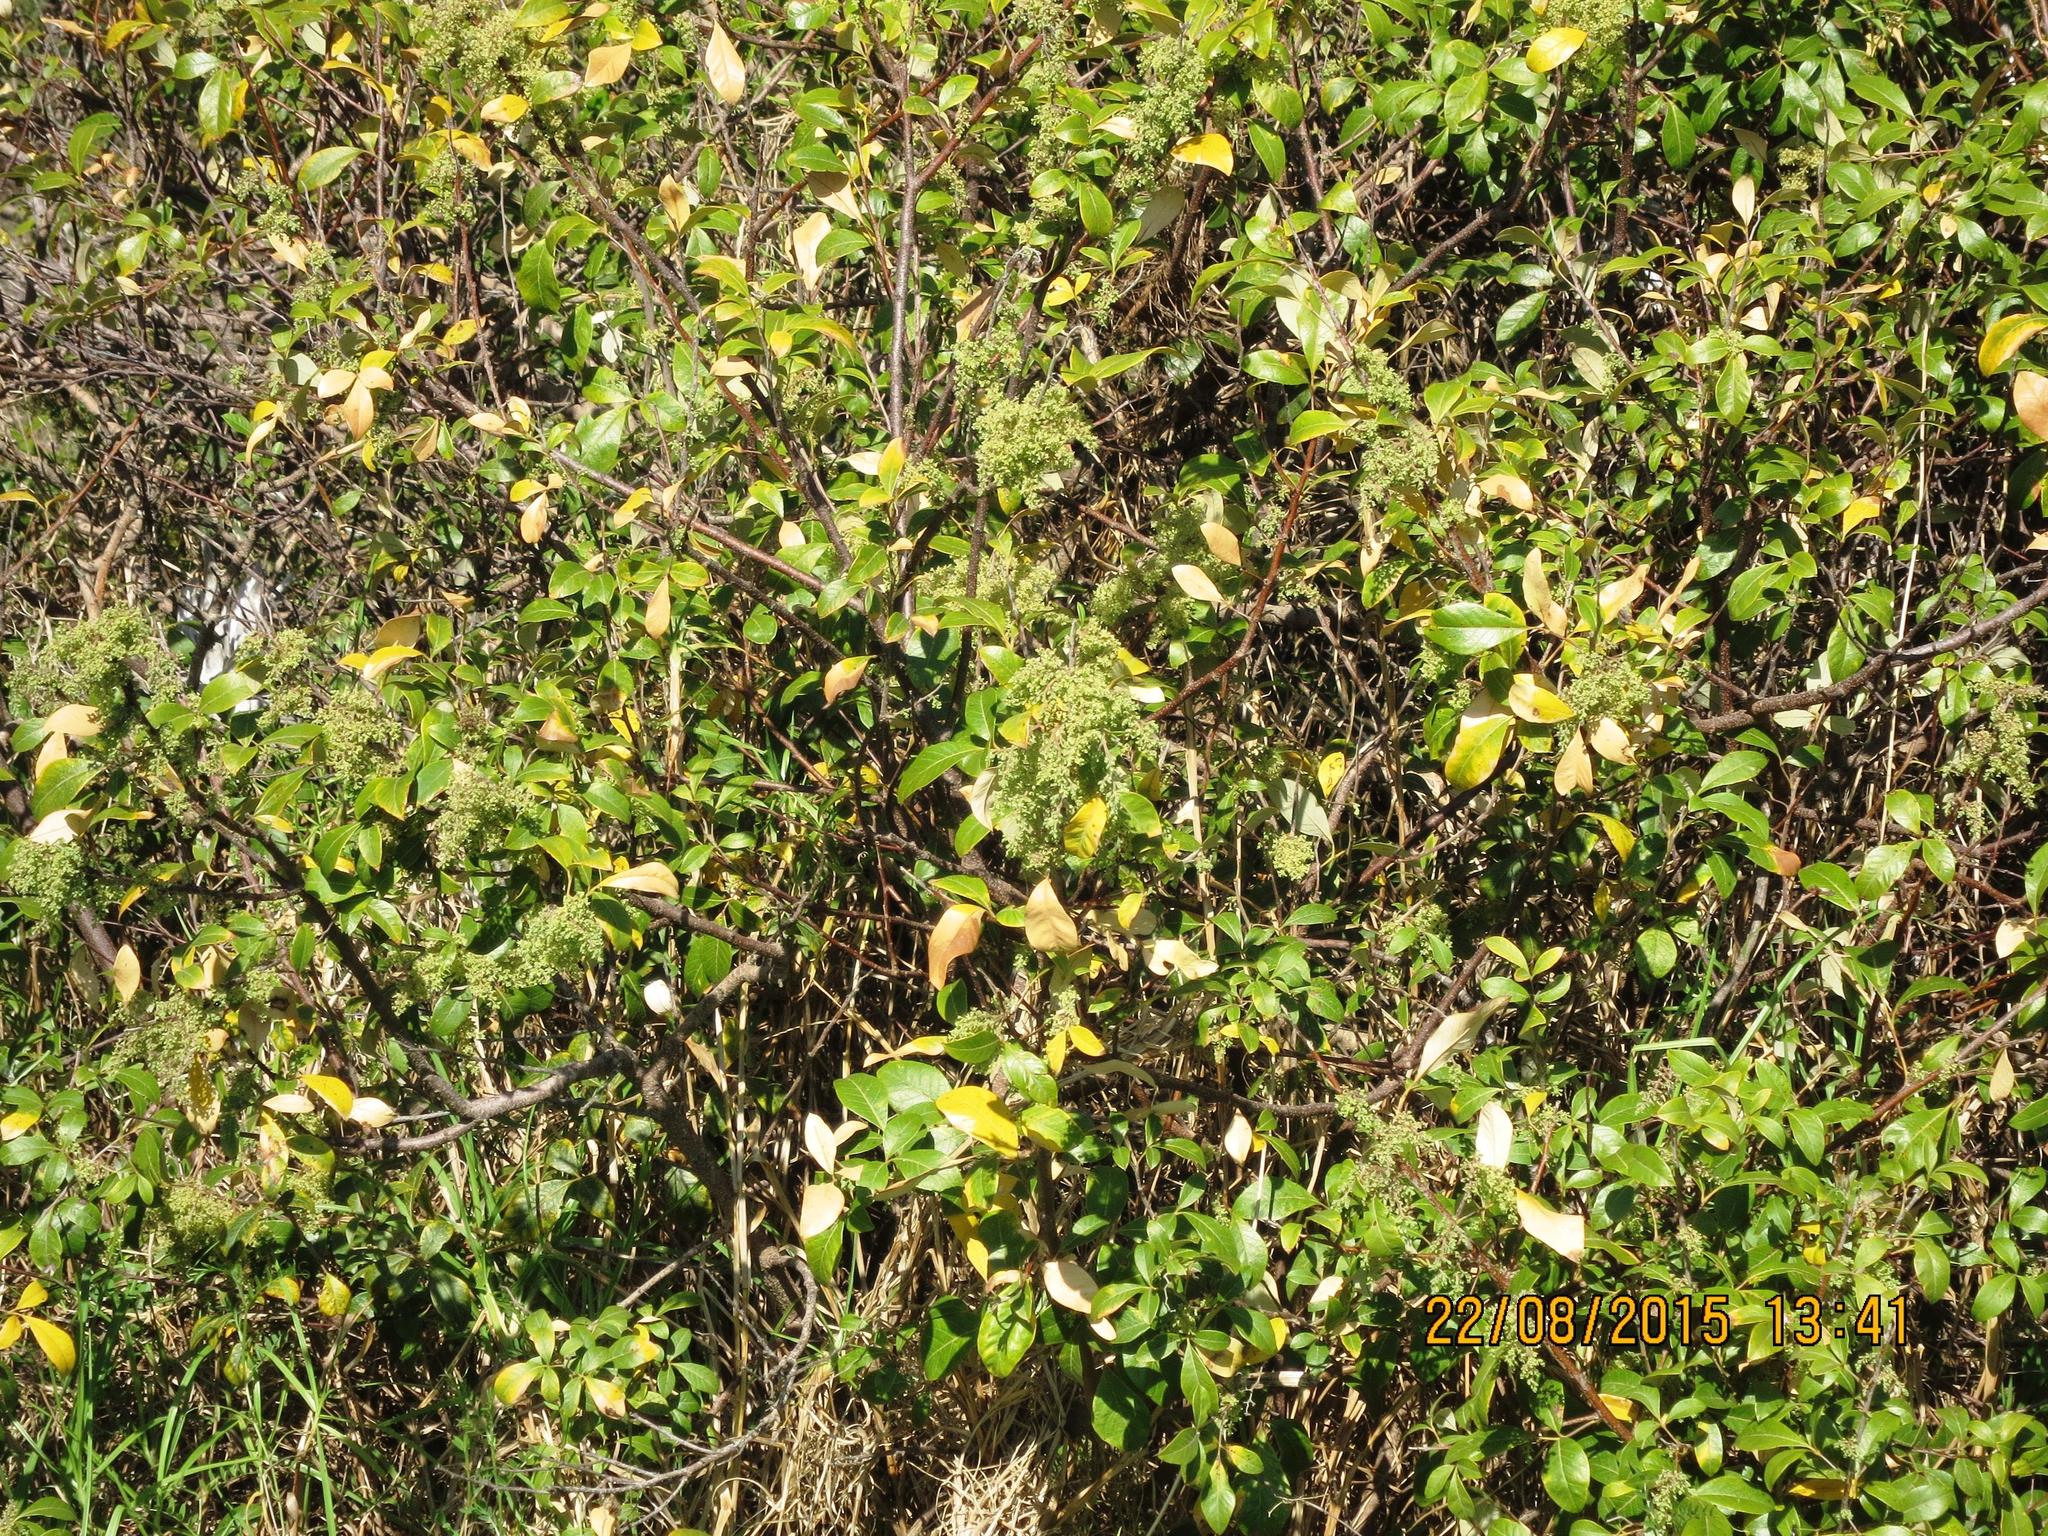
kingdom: Plantae
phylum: Tracheophyta
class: Magnoliopsida
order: Sapindales
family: Anacardiaceae
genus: Searsia
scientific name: Searsia tomentosa
